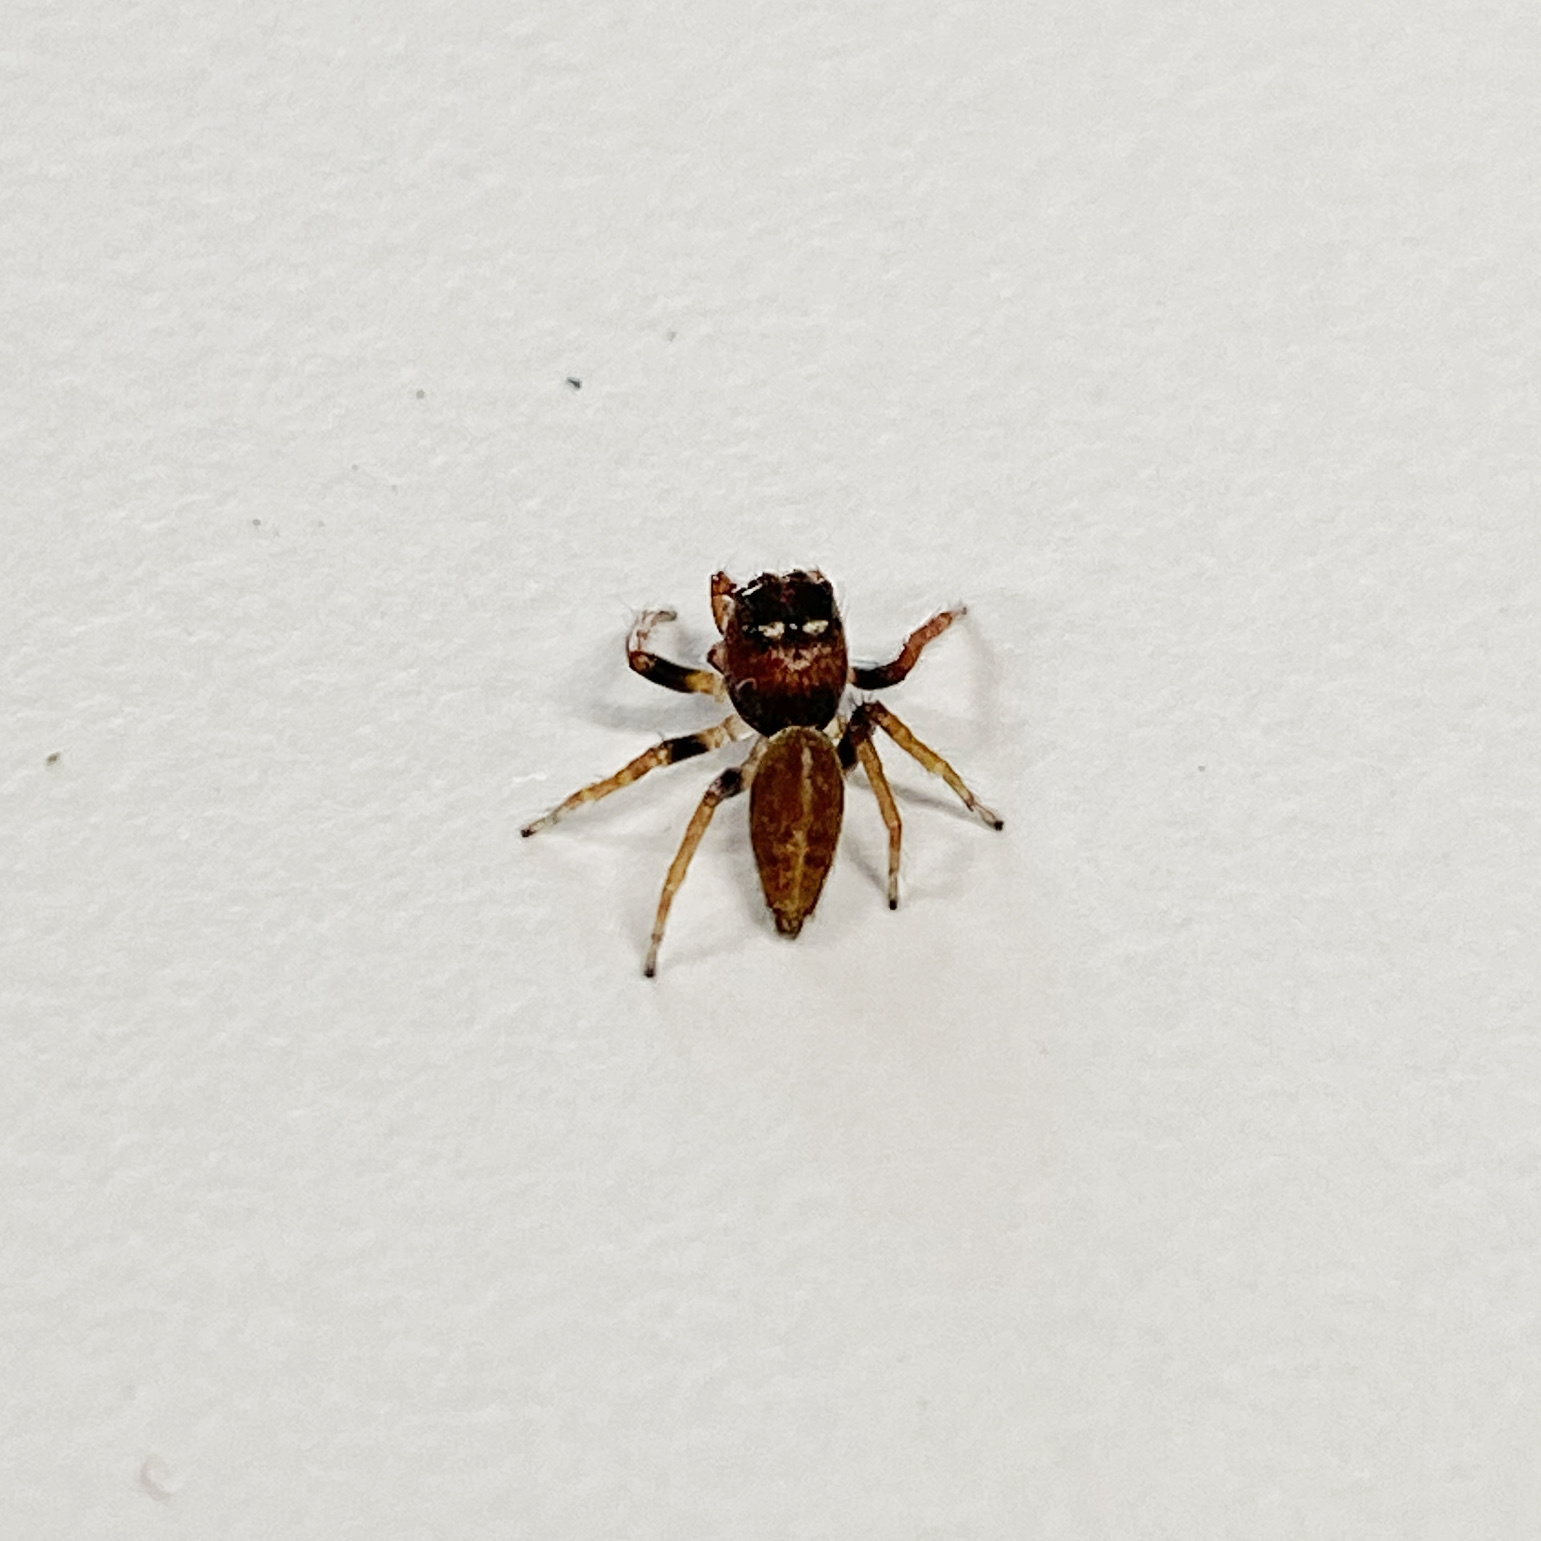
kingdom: Animalia
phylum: Arthropoda
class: Arachnida
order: Araneae
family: Salticidae
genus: Opisthoncus
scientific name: Opisthoncus polyphemus
